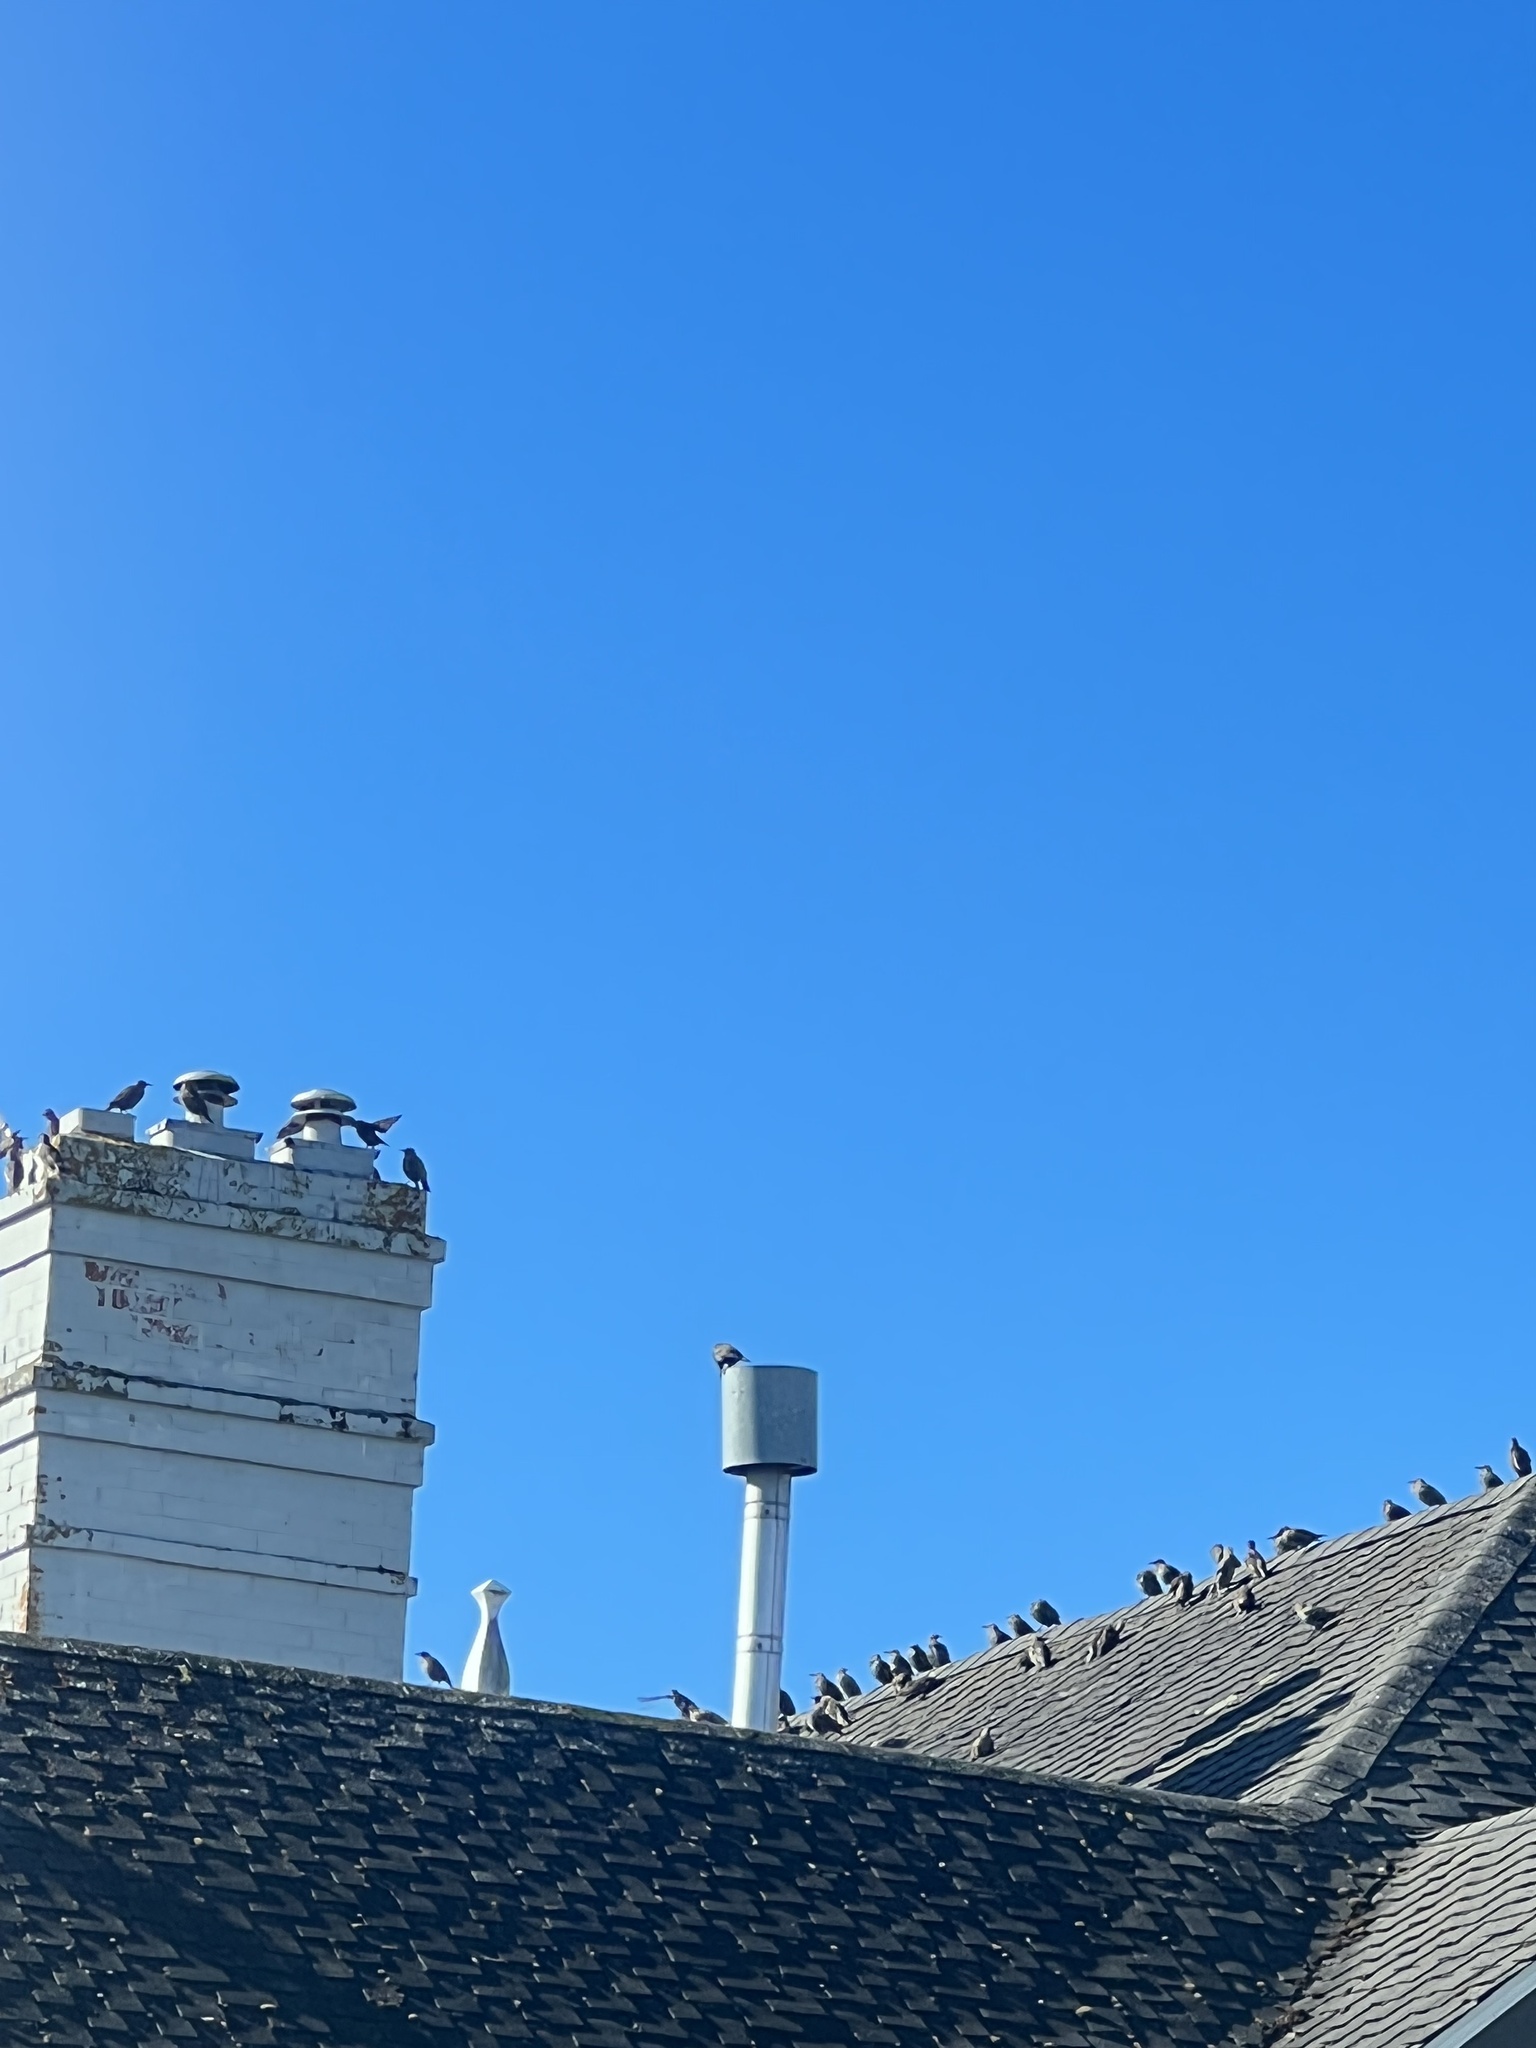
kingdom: Animalia
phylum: Chordata
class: Aves
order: Passeriformes
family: Sturnidae
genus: Sturnus
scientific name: Sturnus vulgaris
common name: Common starling
